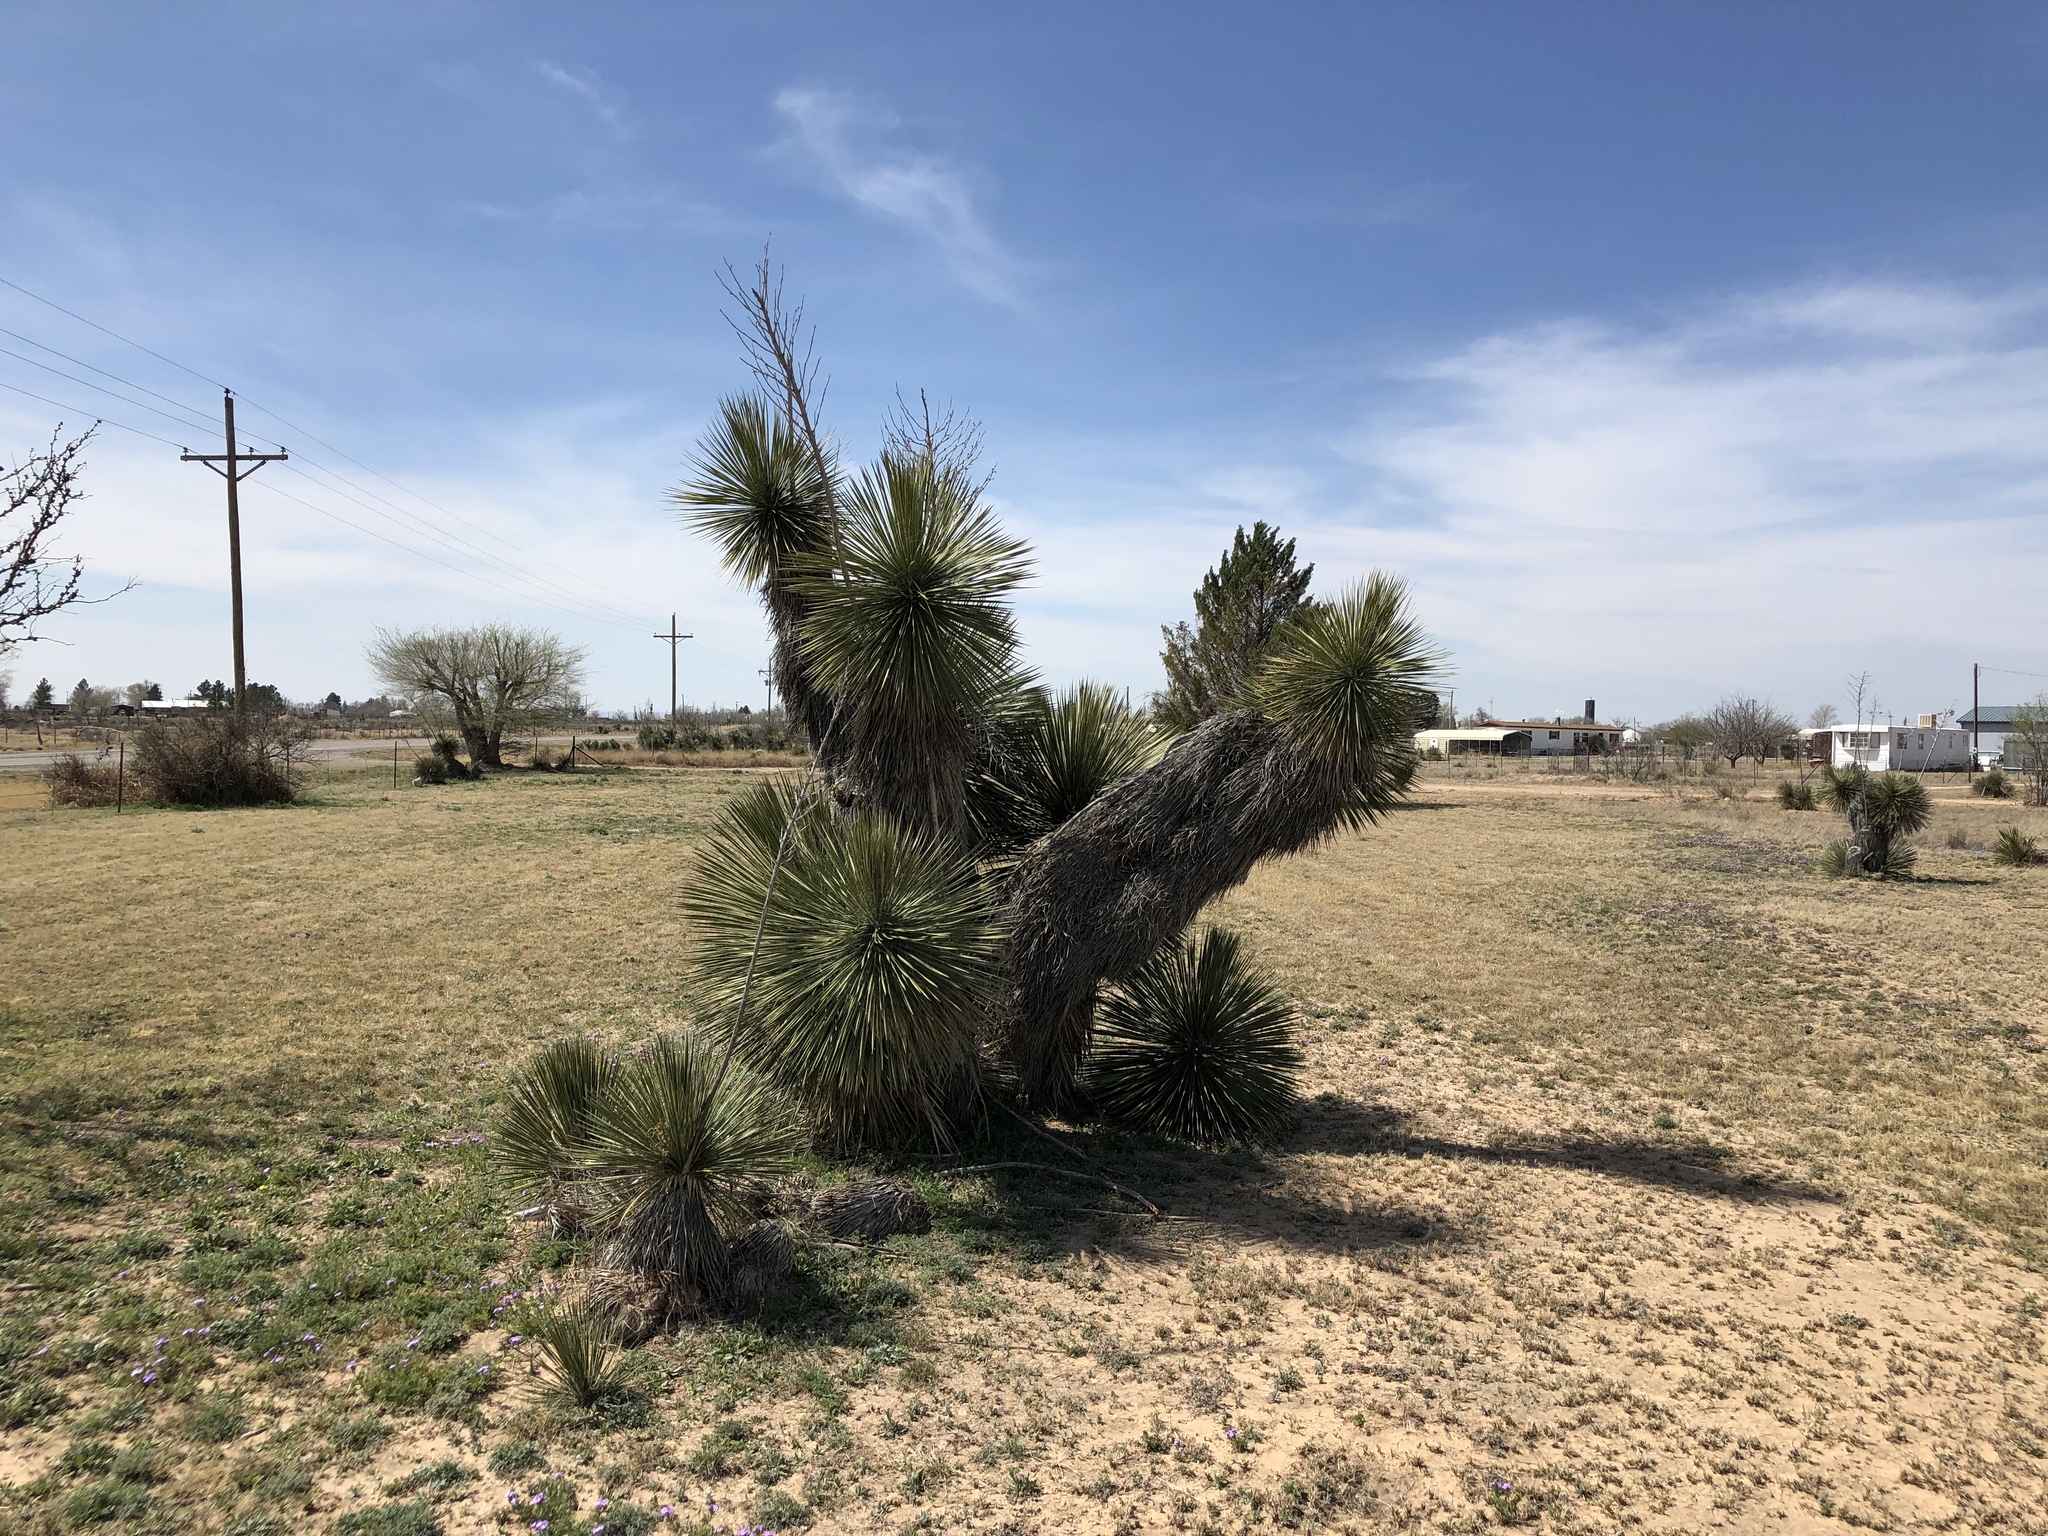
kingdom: Plantae
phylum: Tracheophyta
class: Liliopsida
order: Asparagales
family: Asparagaceae
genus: Yucca
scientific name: Yucca elata
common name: Palmella
